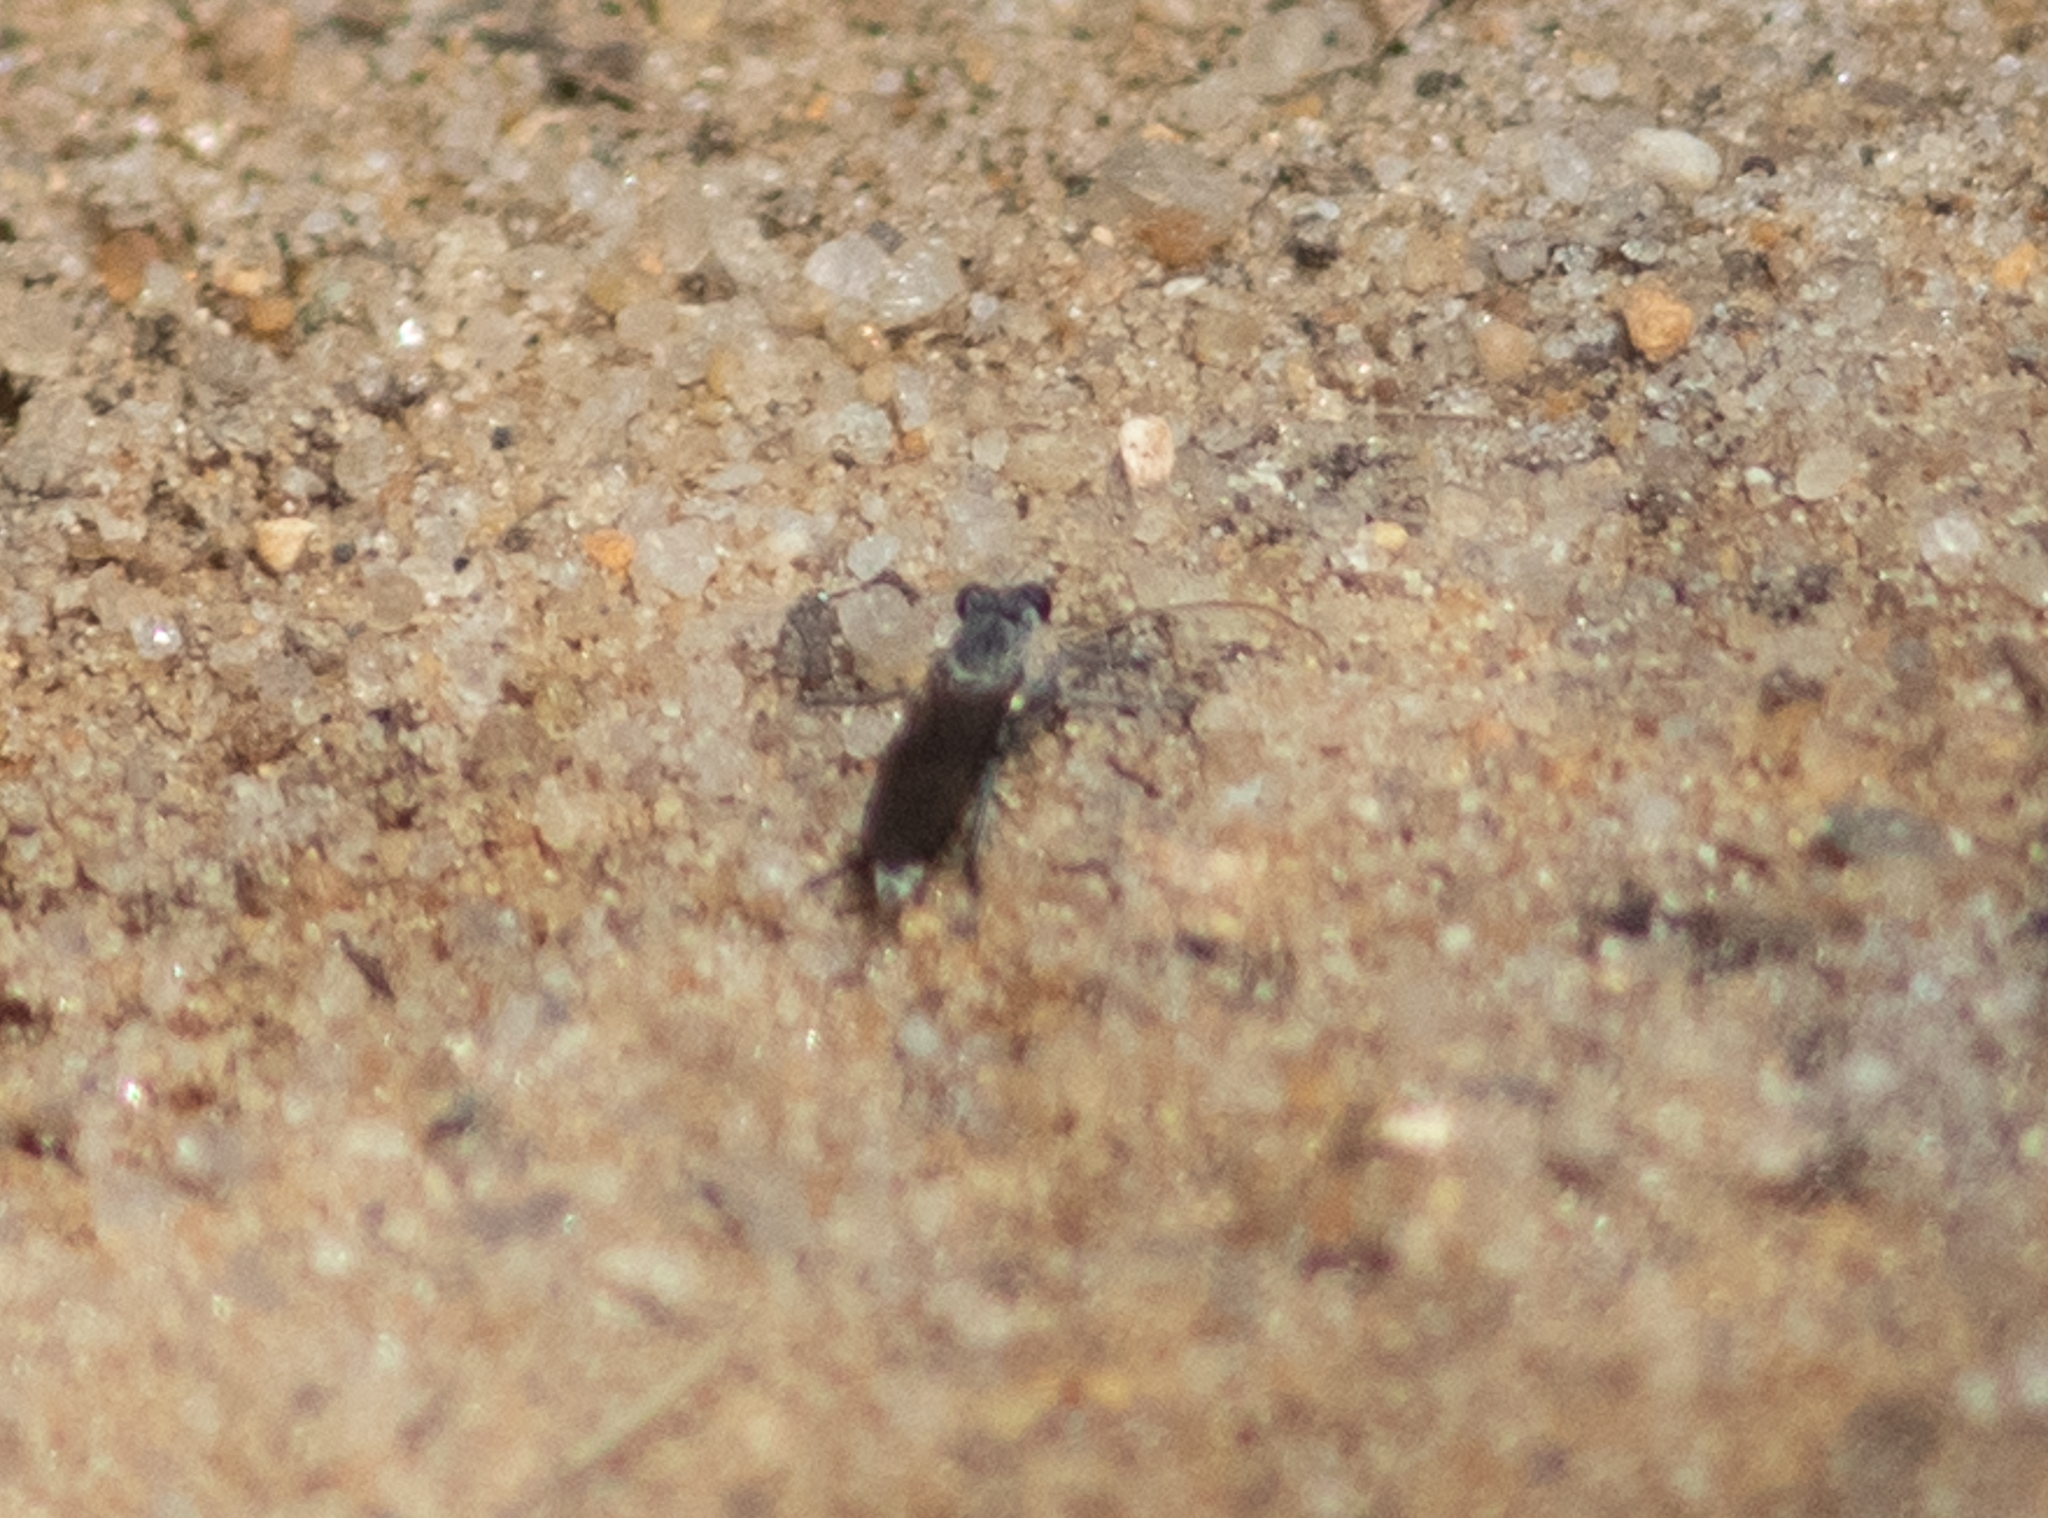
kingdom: Animalia
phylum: Arthropoda
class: Insecta
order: Diptera
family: Asilidae
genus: Stichopogon
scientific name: Stichopogon trifasciatus
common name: Three-banded robber fly
